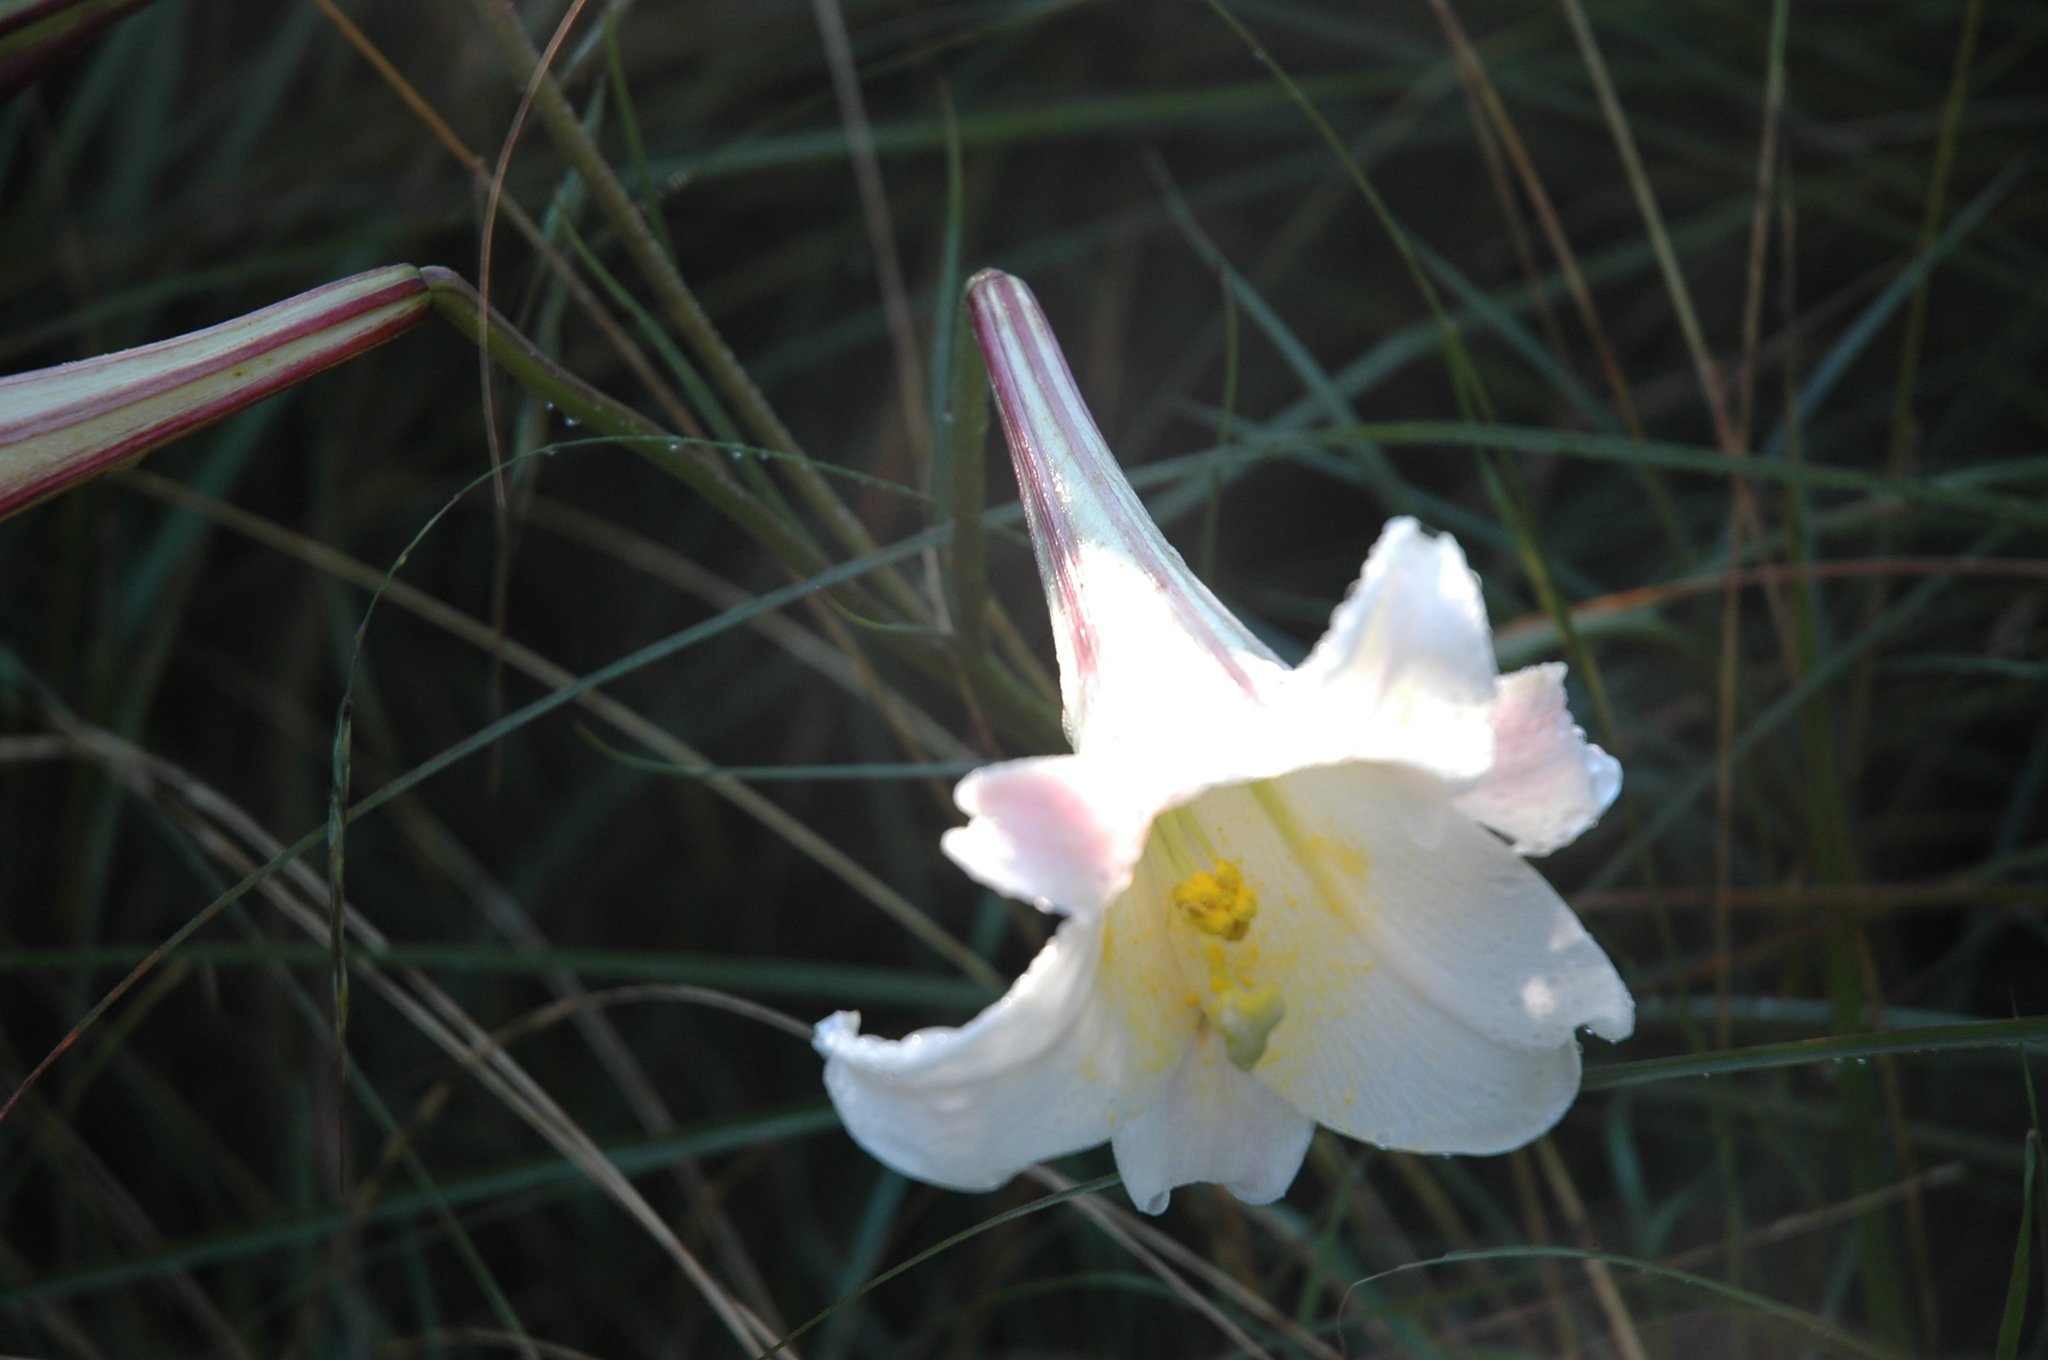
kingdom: Plantae
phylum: Tracheophyta
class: Liliopsida
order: Liliales
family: Liliaceae
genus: Lilium
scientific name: Lilium formosanum
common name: Formosa lily
